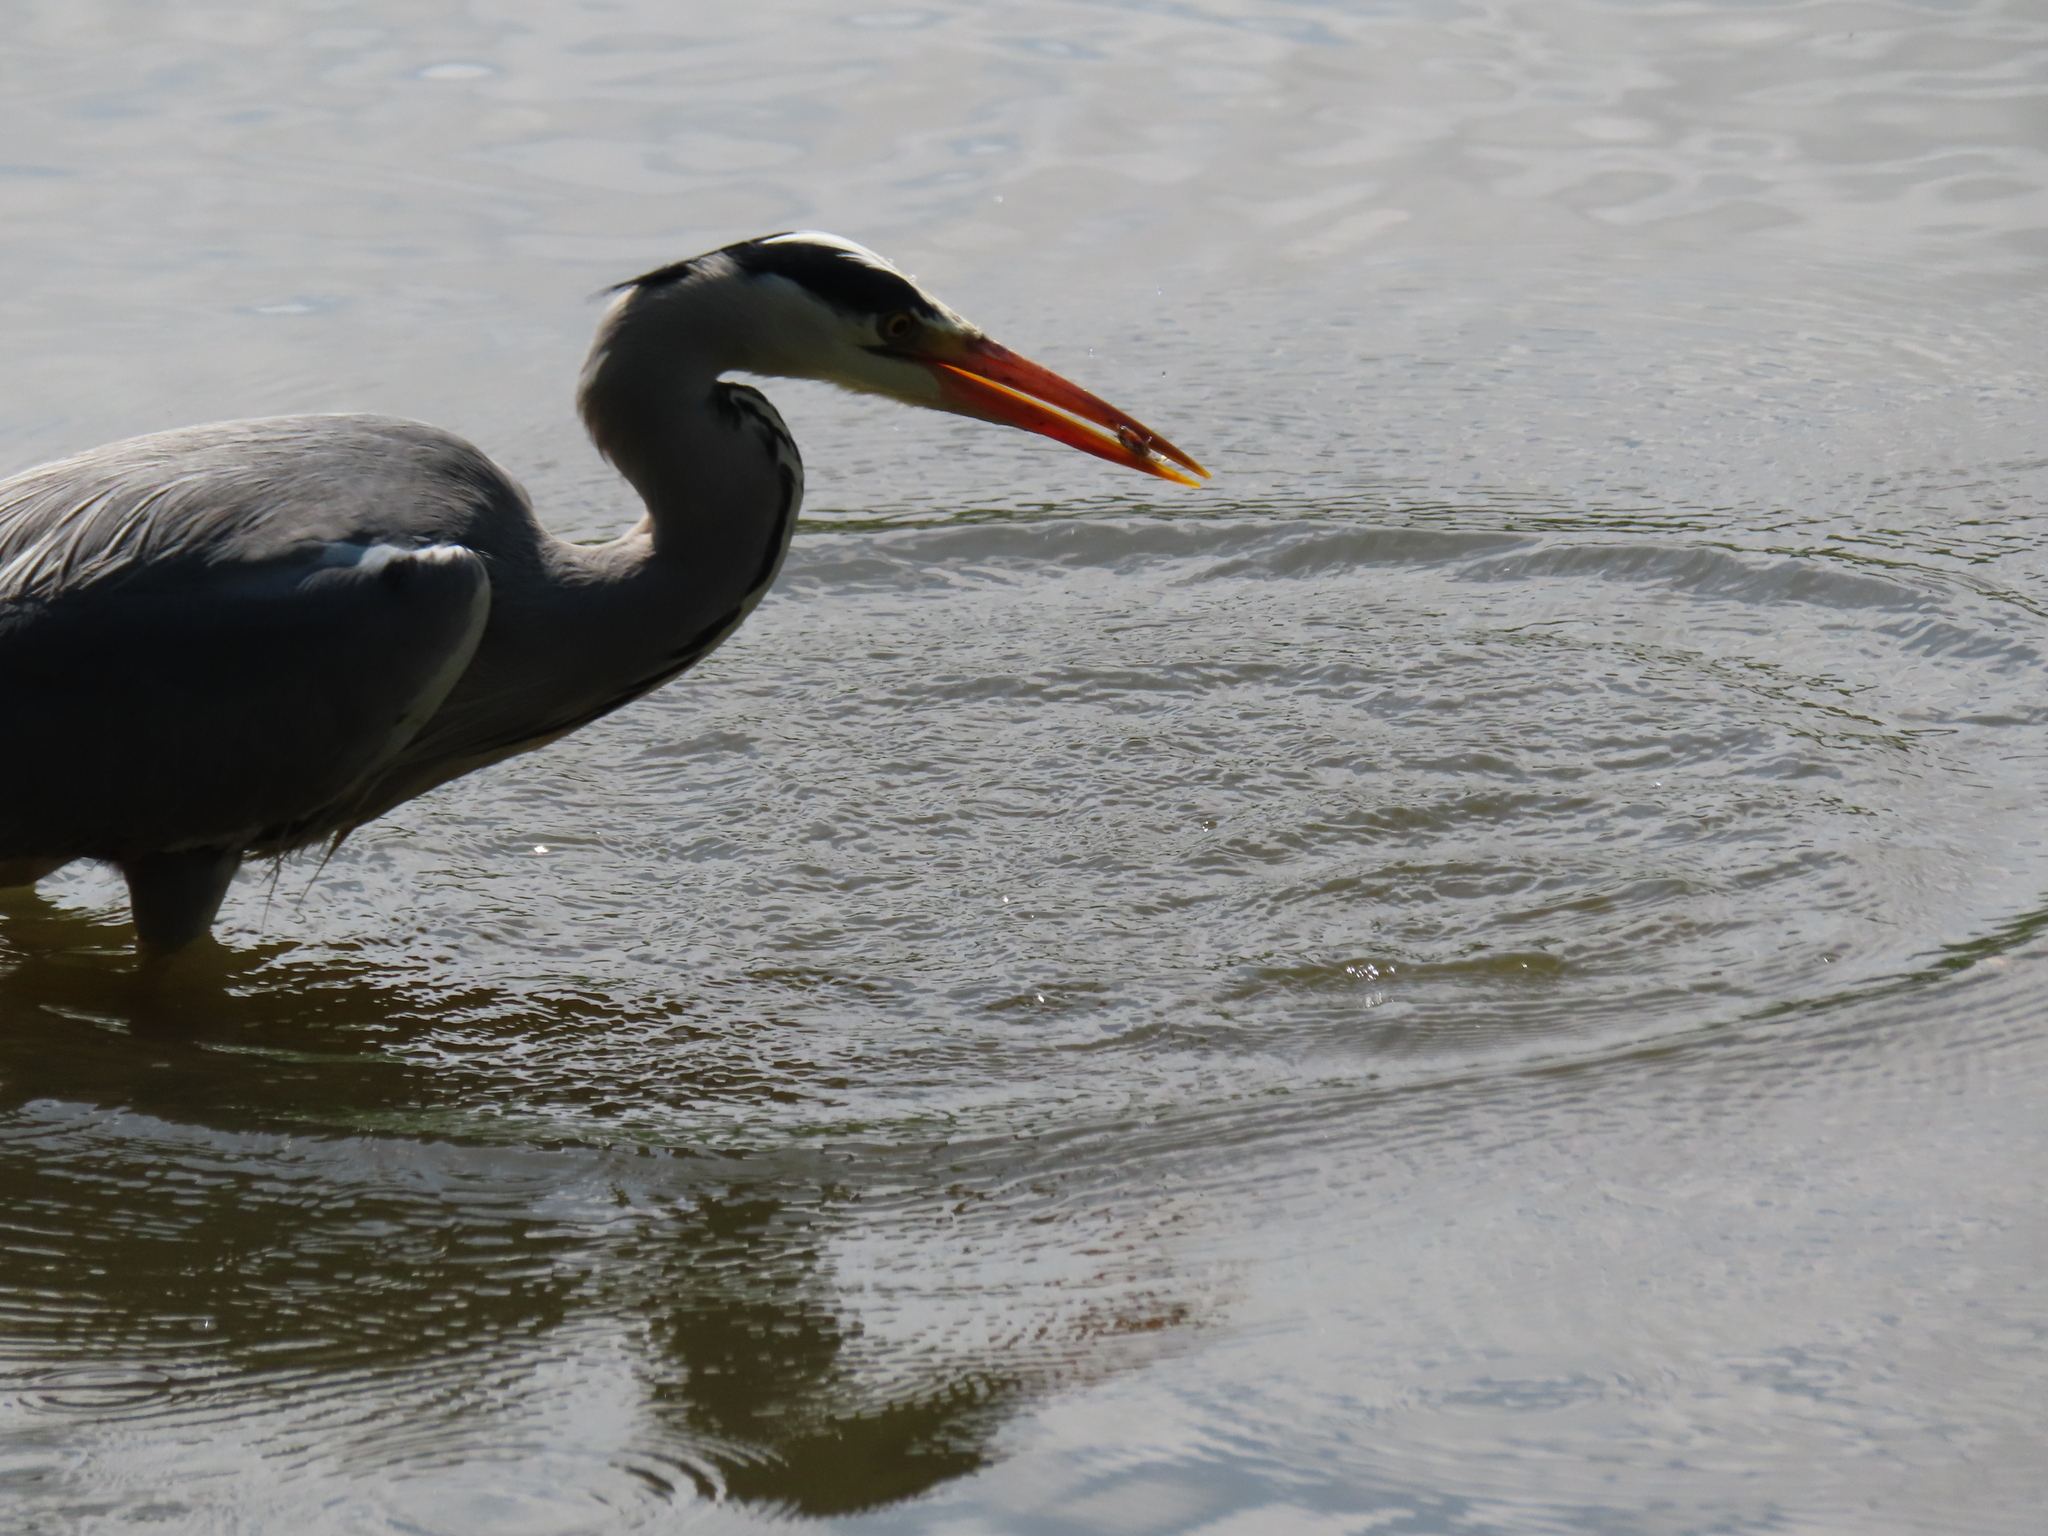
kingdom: Animalia
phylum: Chordata
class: Aves
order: Pelecaniformes
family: Ardeidae
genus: Ardea
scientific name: Ardea cinerea
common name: Grey heron
